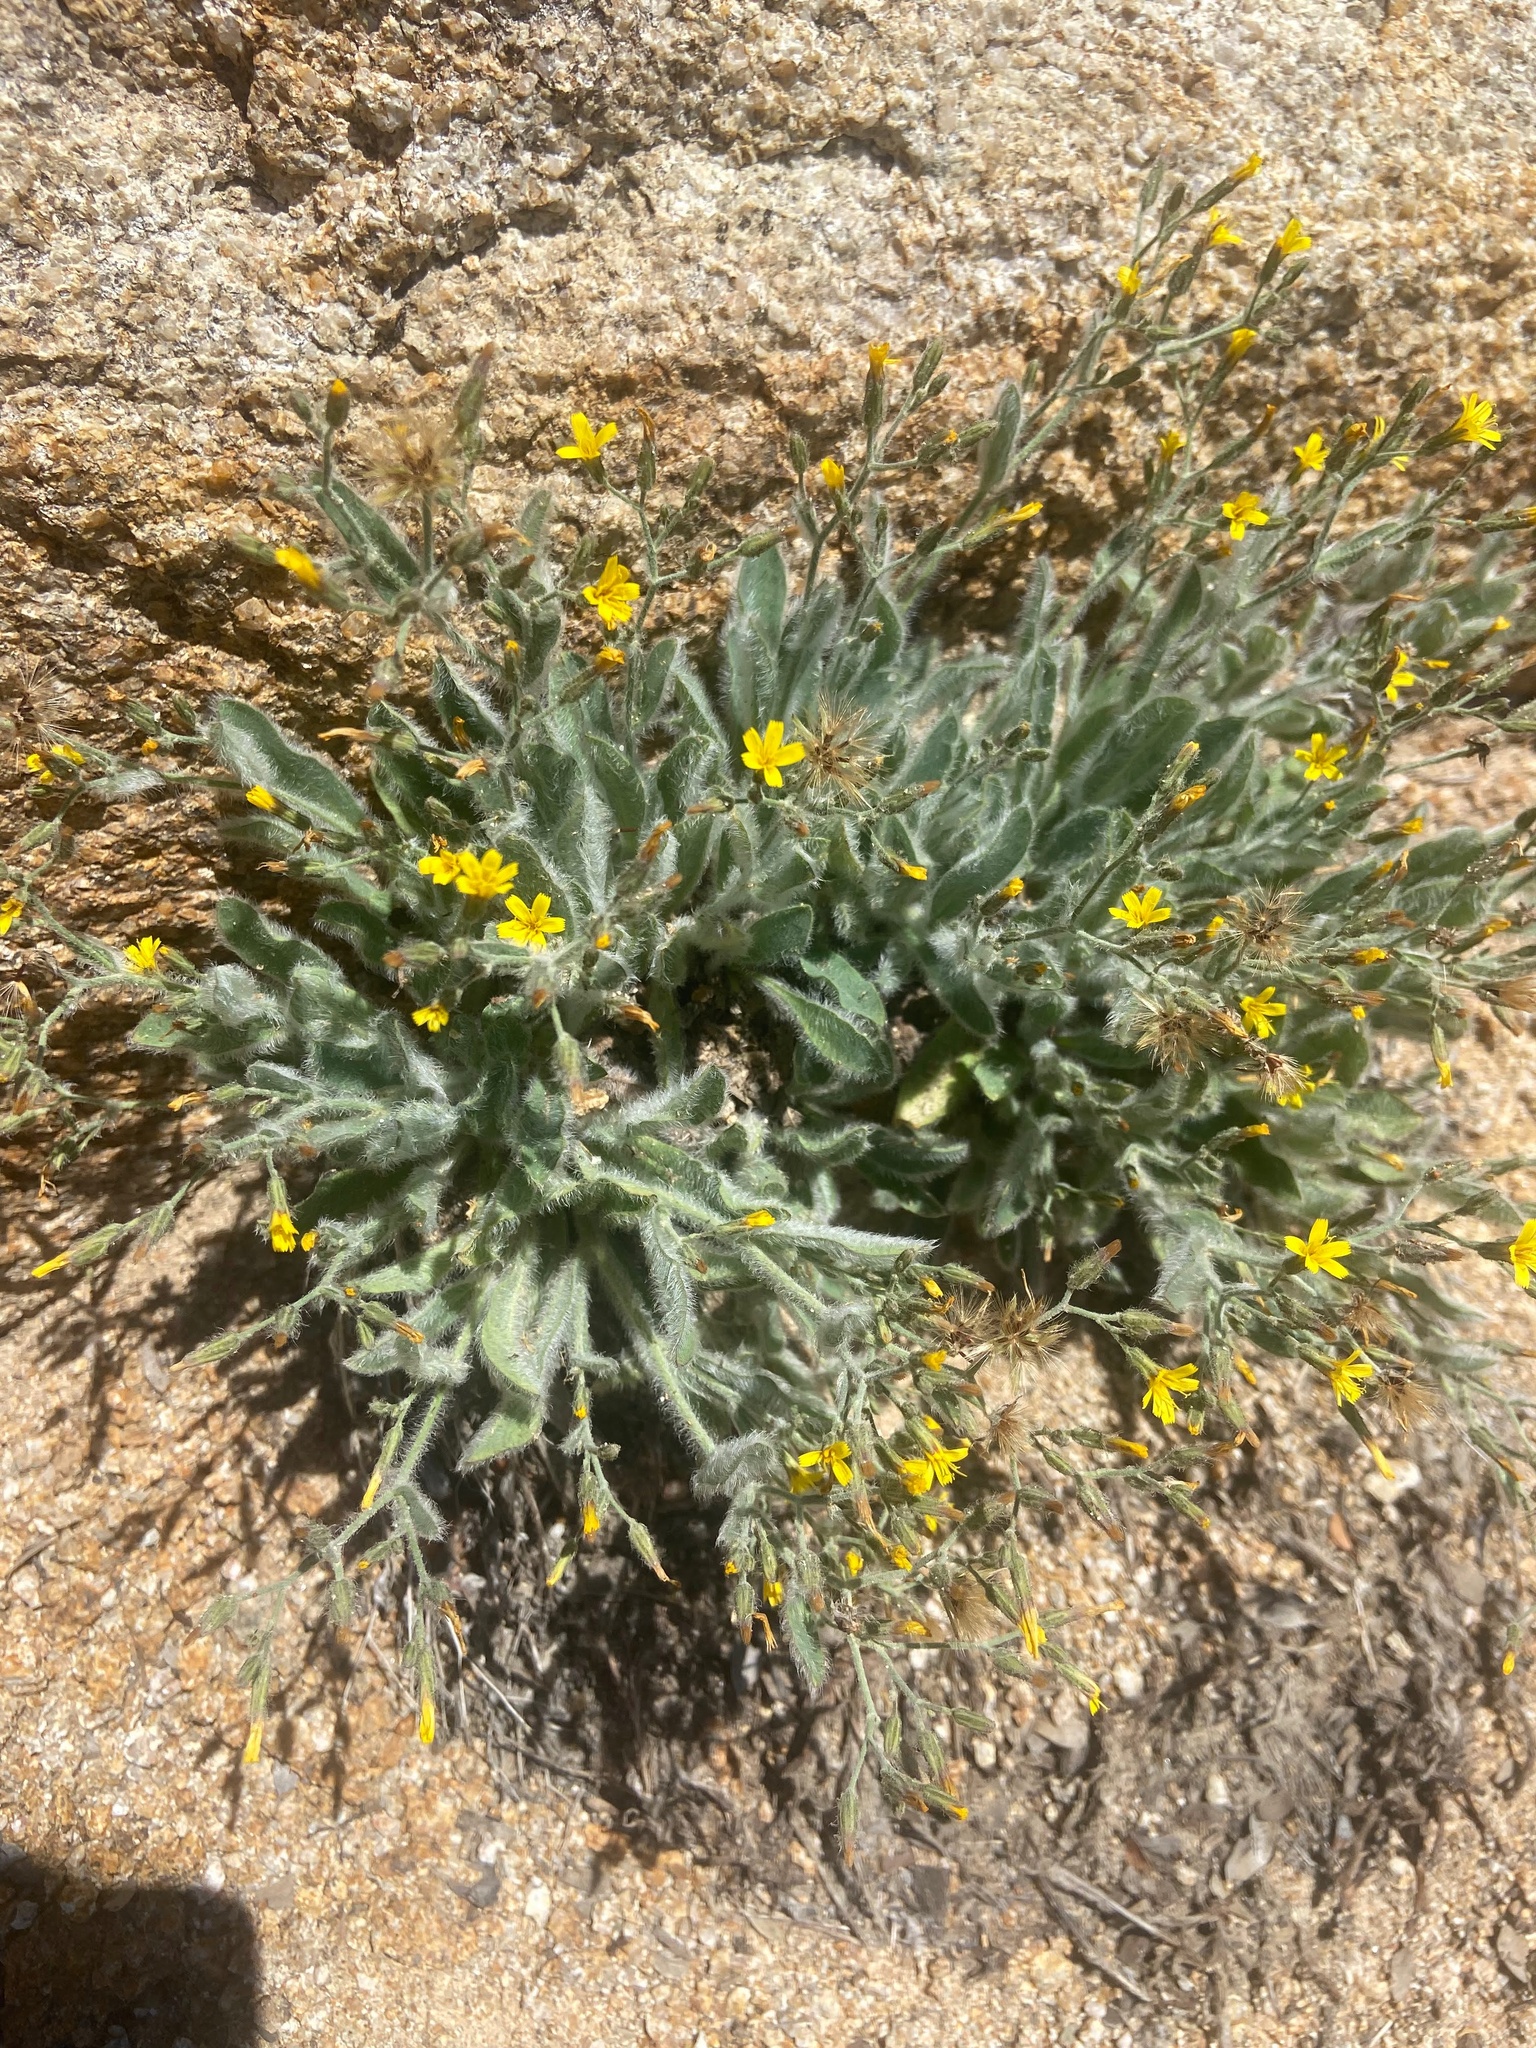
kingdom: Plantae
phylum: Tracheophyta
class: Magnoliopsida
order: Asterales
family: Asteraceae
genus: Hieracium
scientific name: Hieracium horridum
